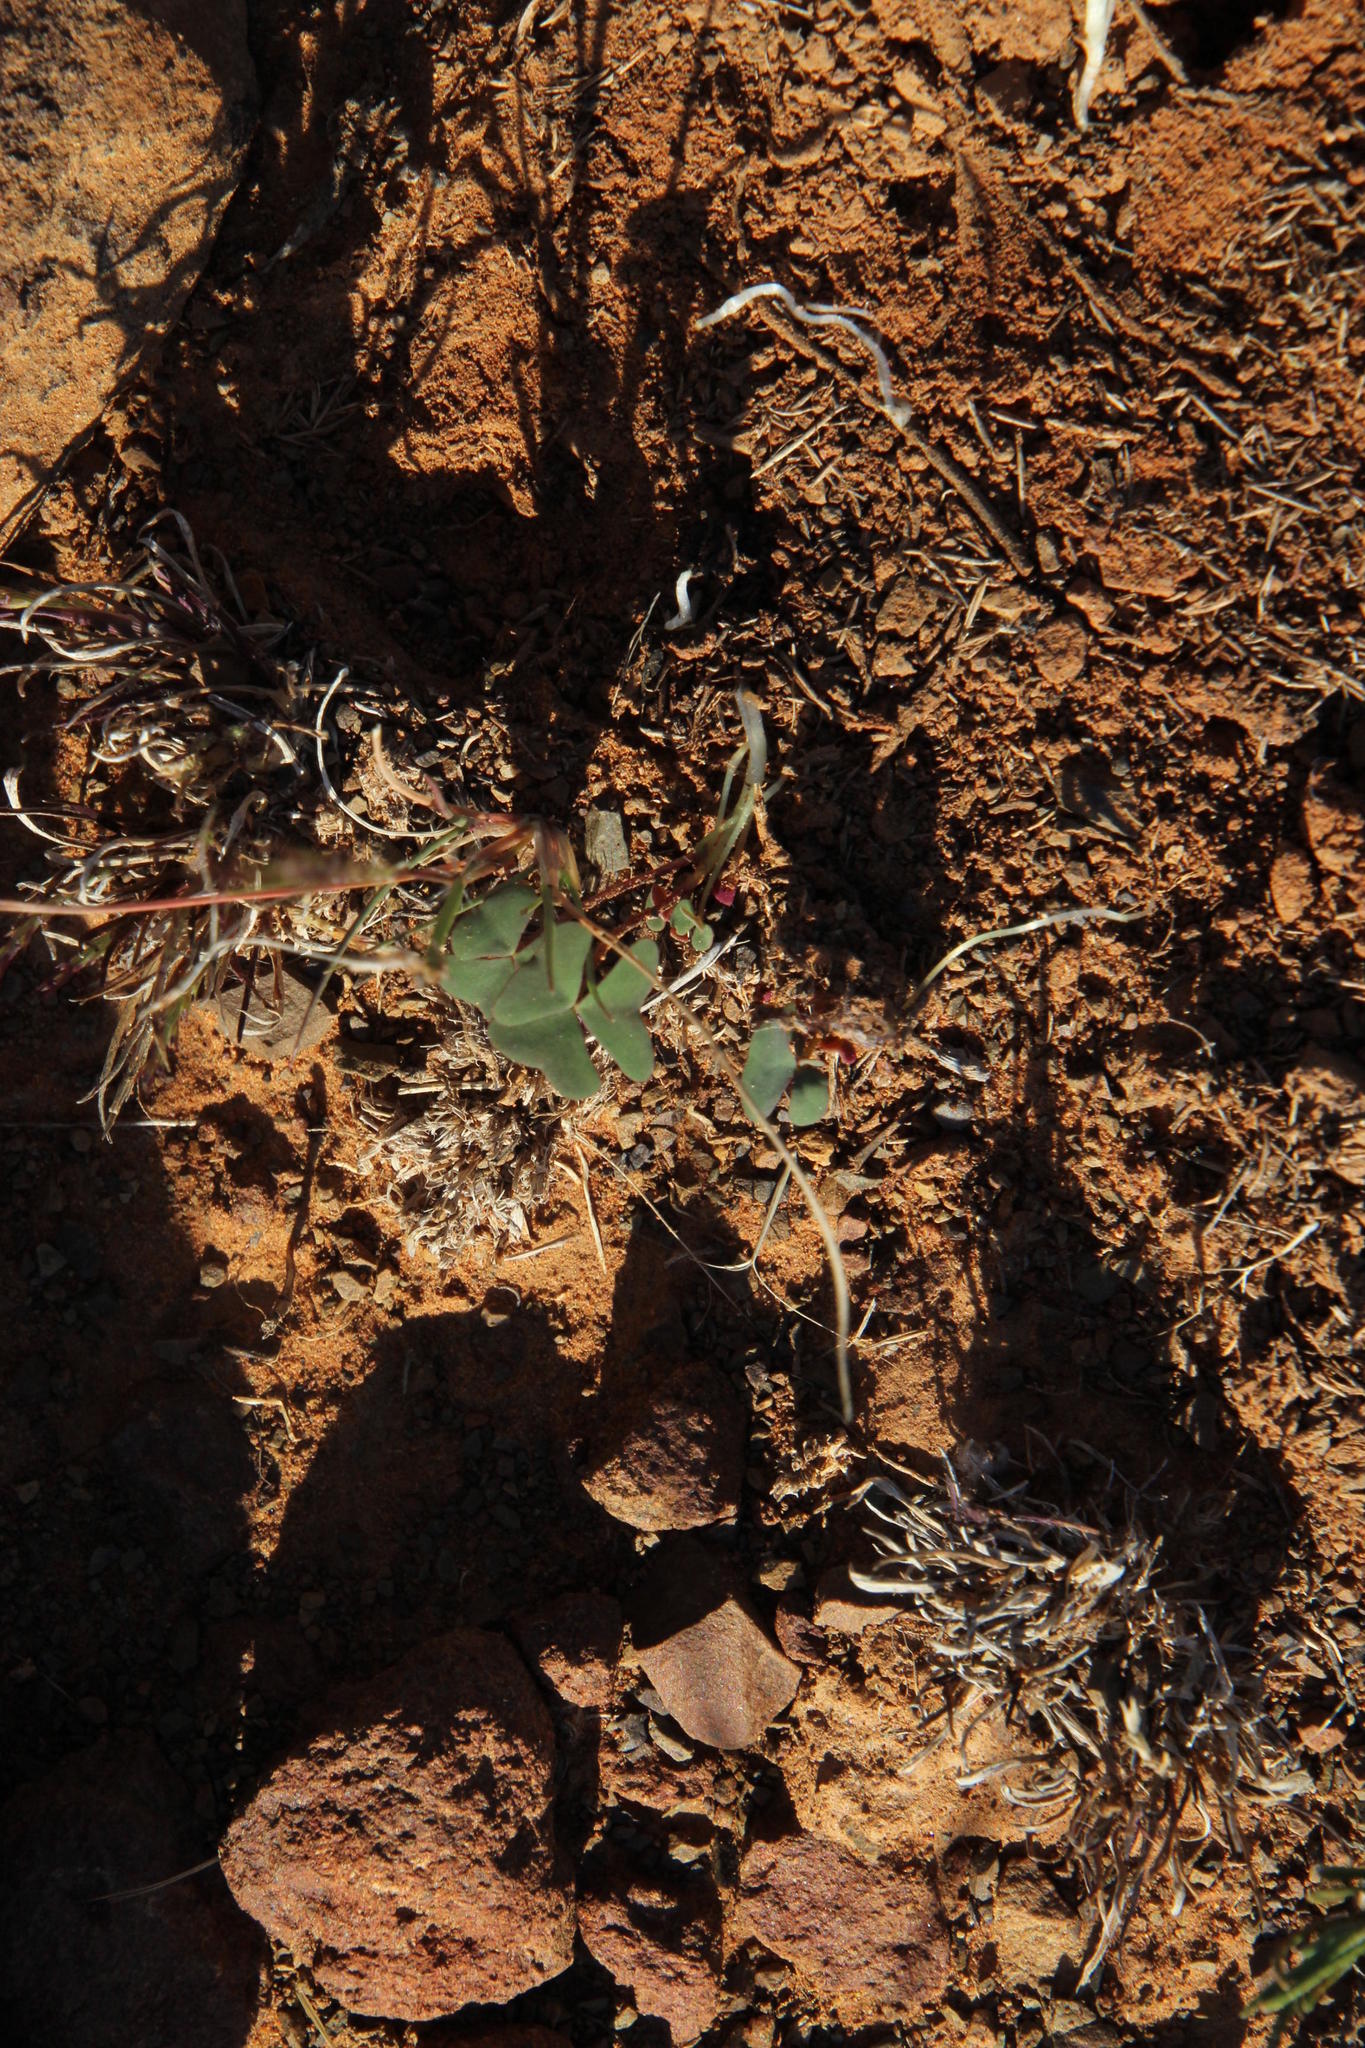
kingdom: Plantae
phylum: Tracheophyta
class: Magnoliopsida
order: Oxalidales
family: Oxalidaceae
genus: Oxalis
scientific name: Oxalis obliquifolia
